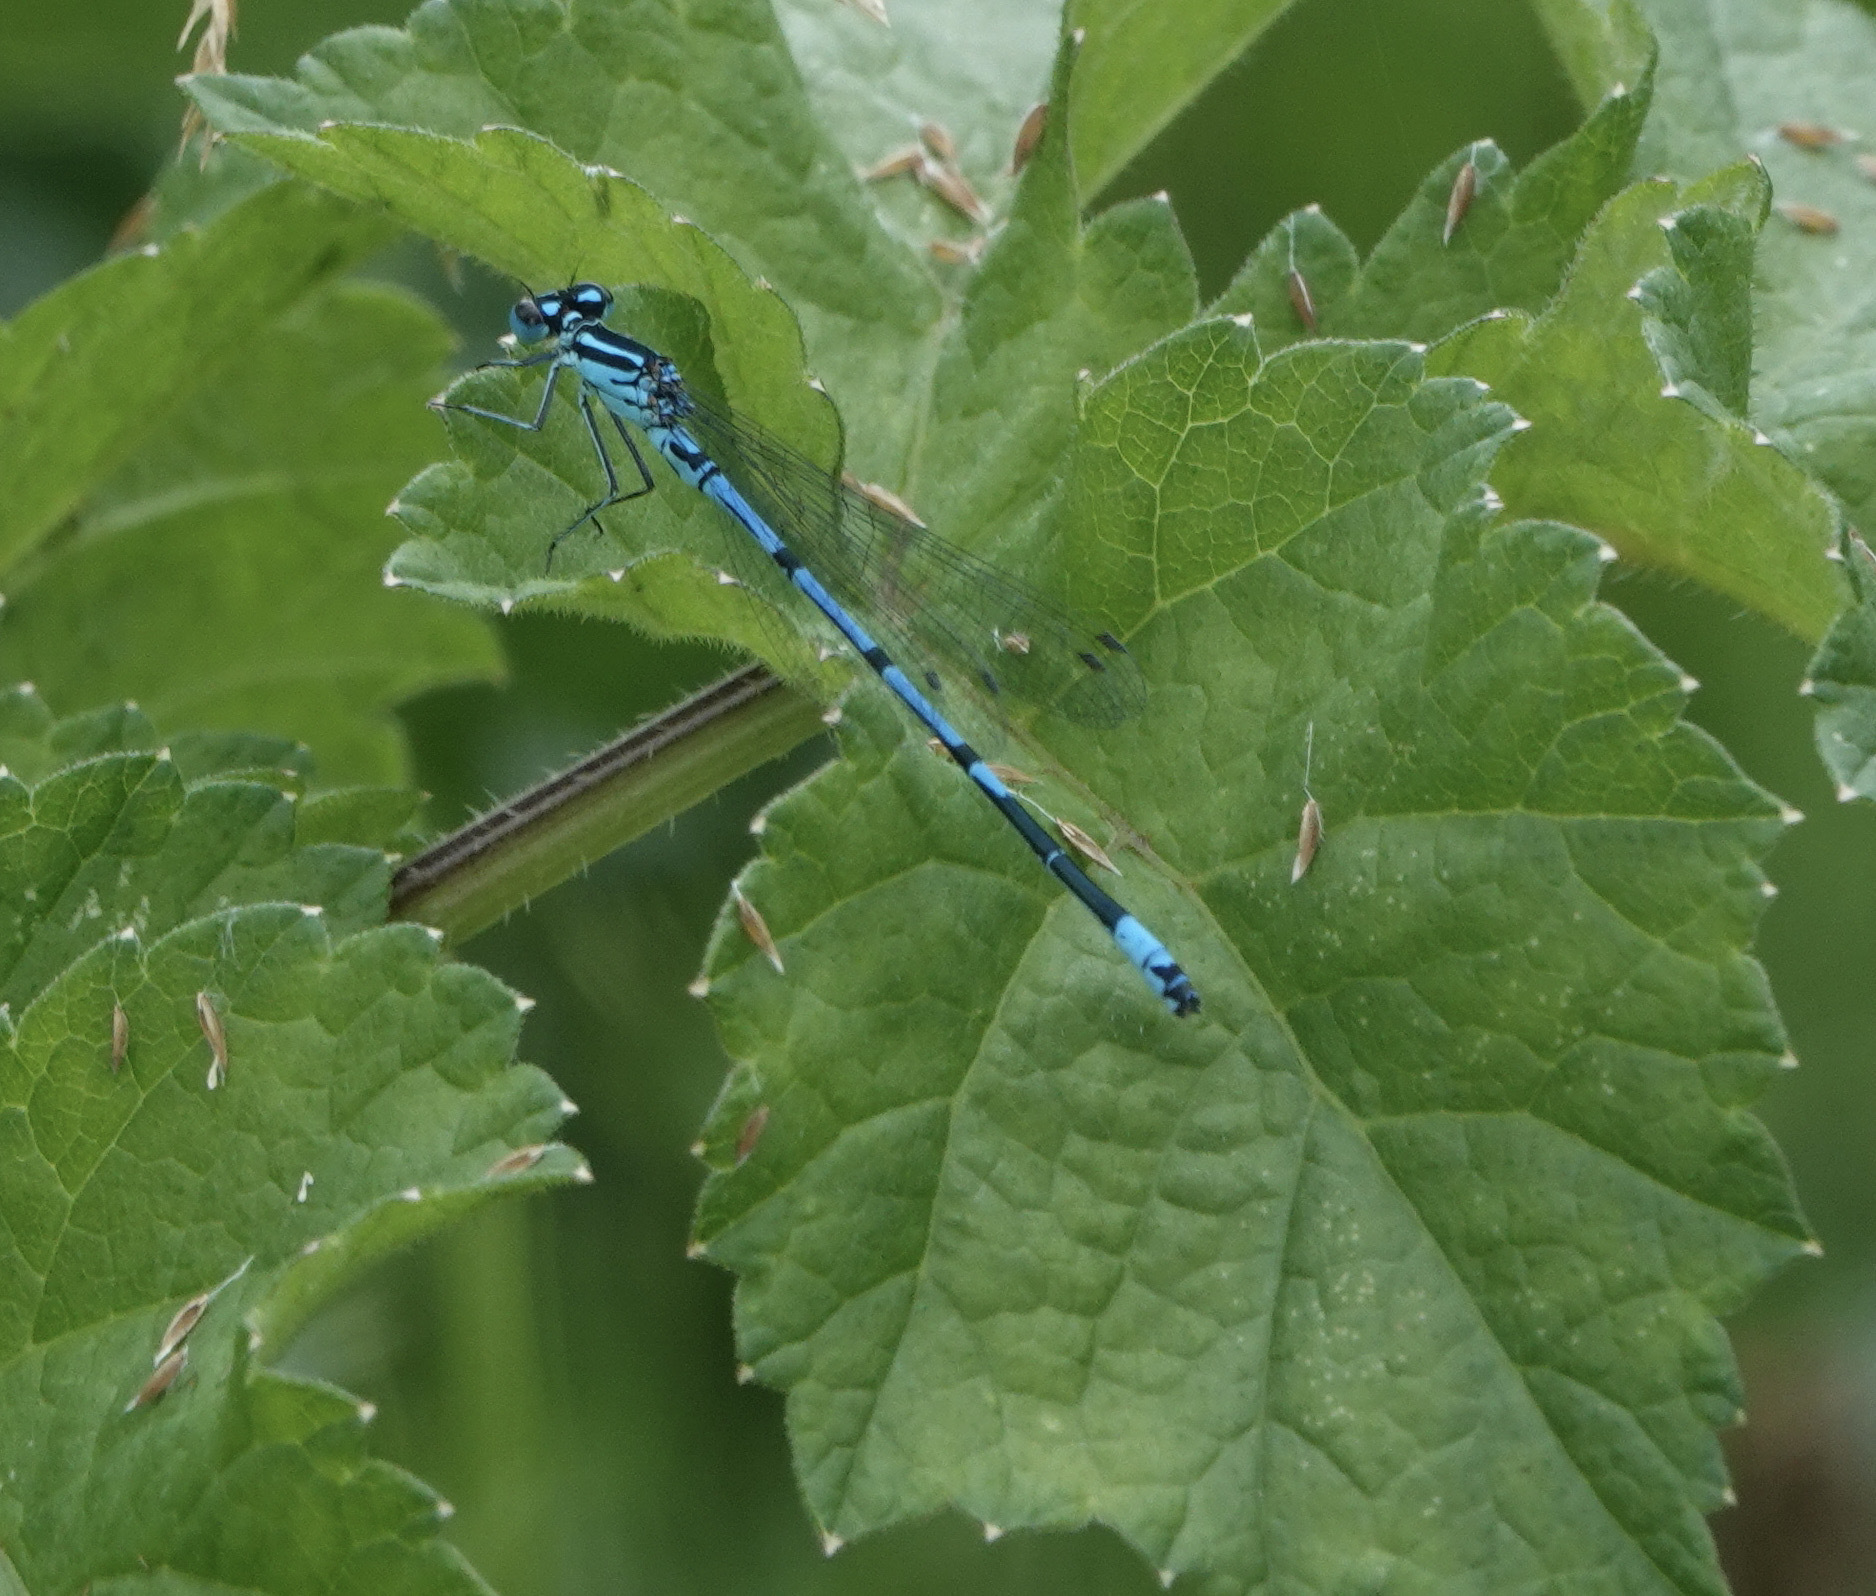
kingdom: Animalia
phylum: Arthropoda
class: Insecta
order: Odonata
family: Coenagrionidae
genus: Coenagrion
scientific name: Coenagrion puella
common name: Azure damselfly
